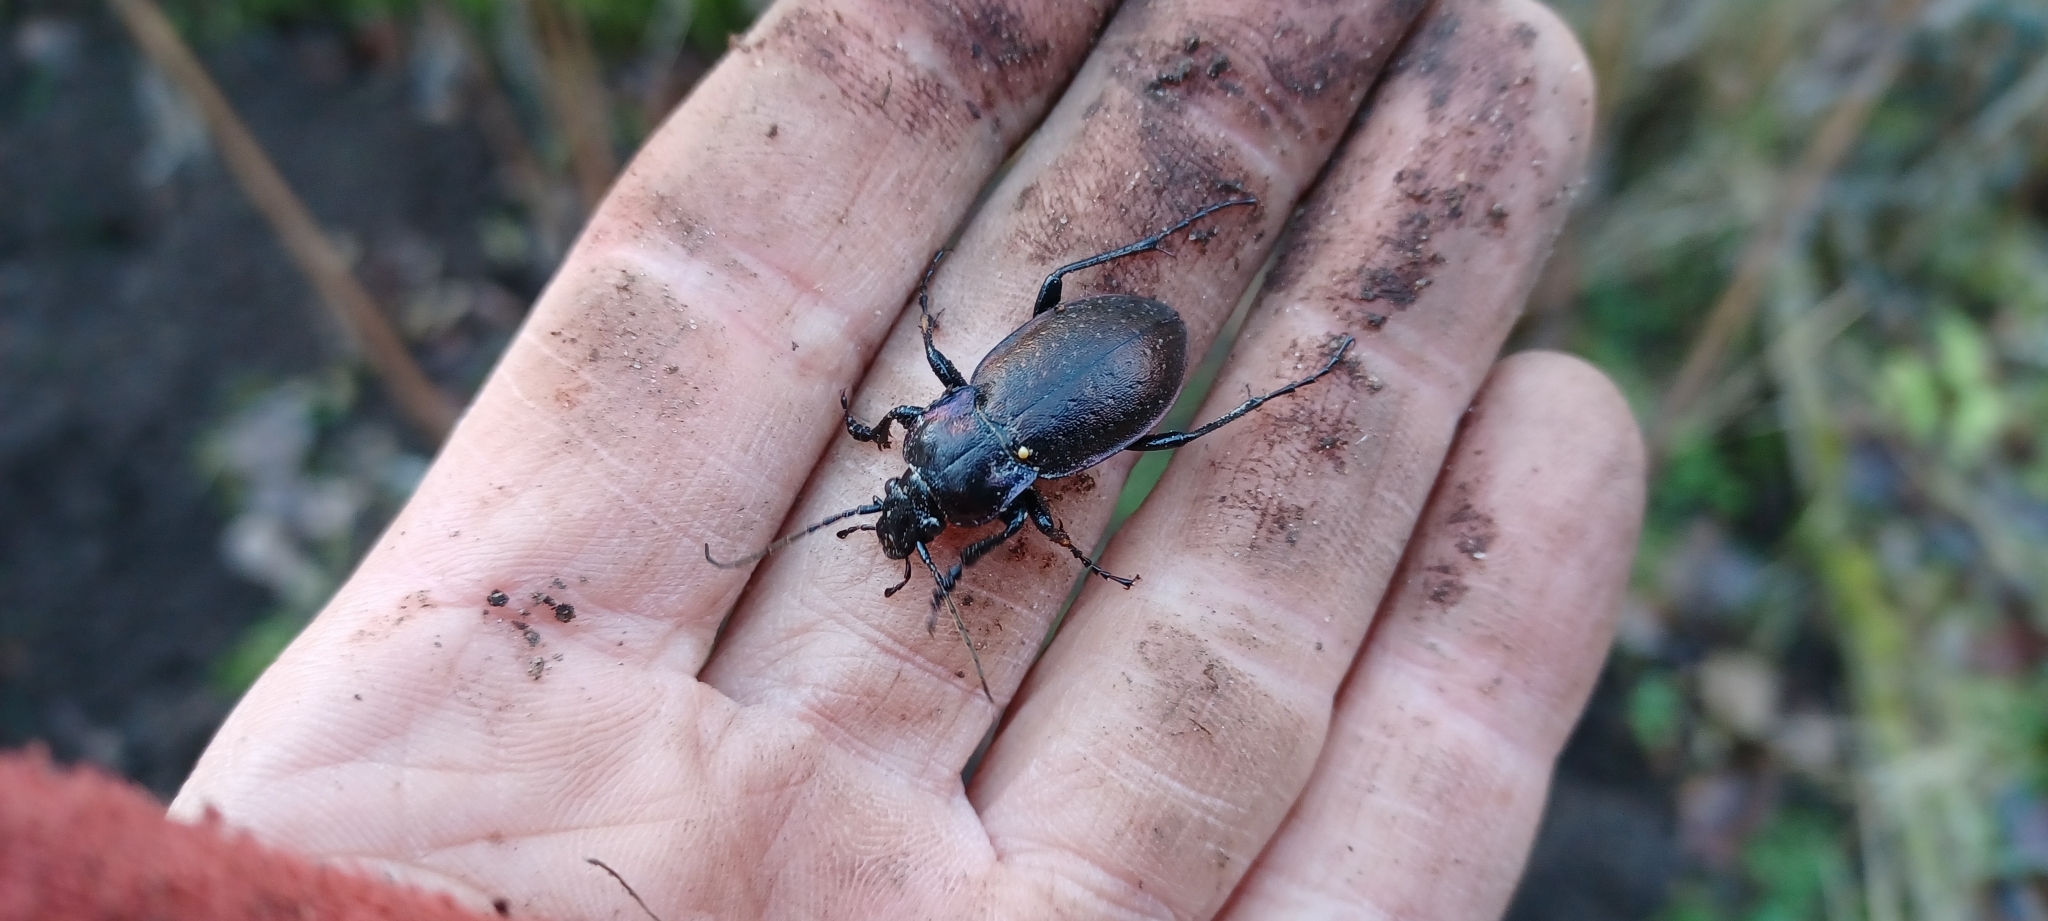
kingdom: Animalia
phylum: Arthropoda
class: Insecta
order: Coleoptera
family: Carabidae
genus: Carabus
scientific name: Carabus nemoralis
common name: European ground beetle
